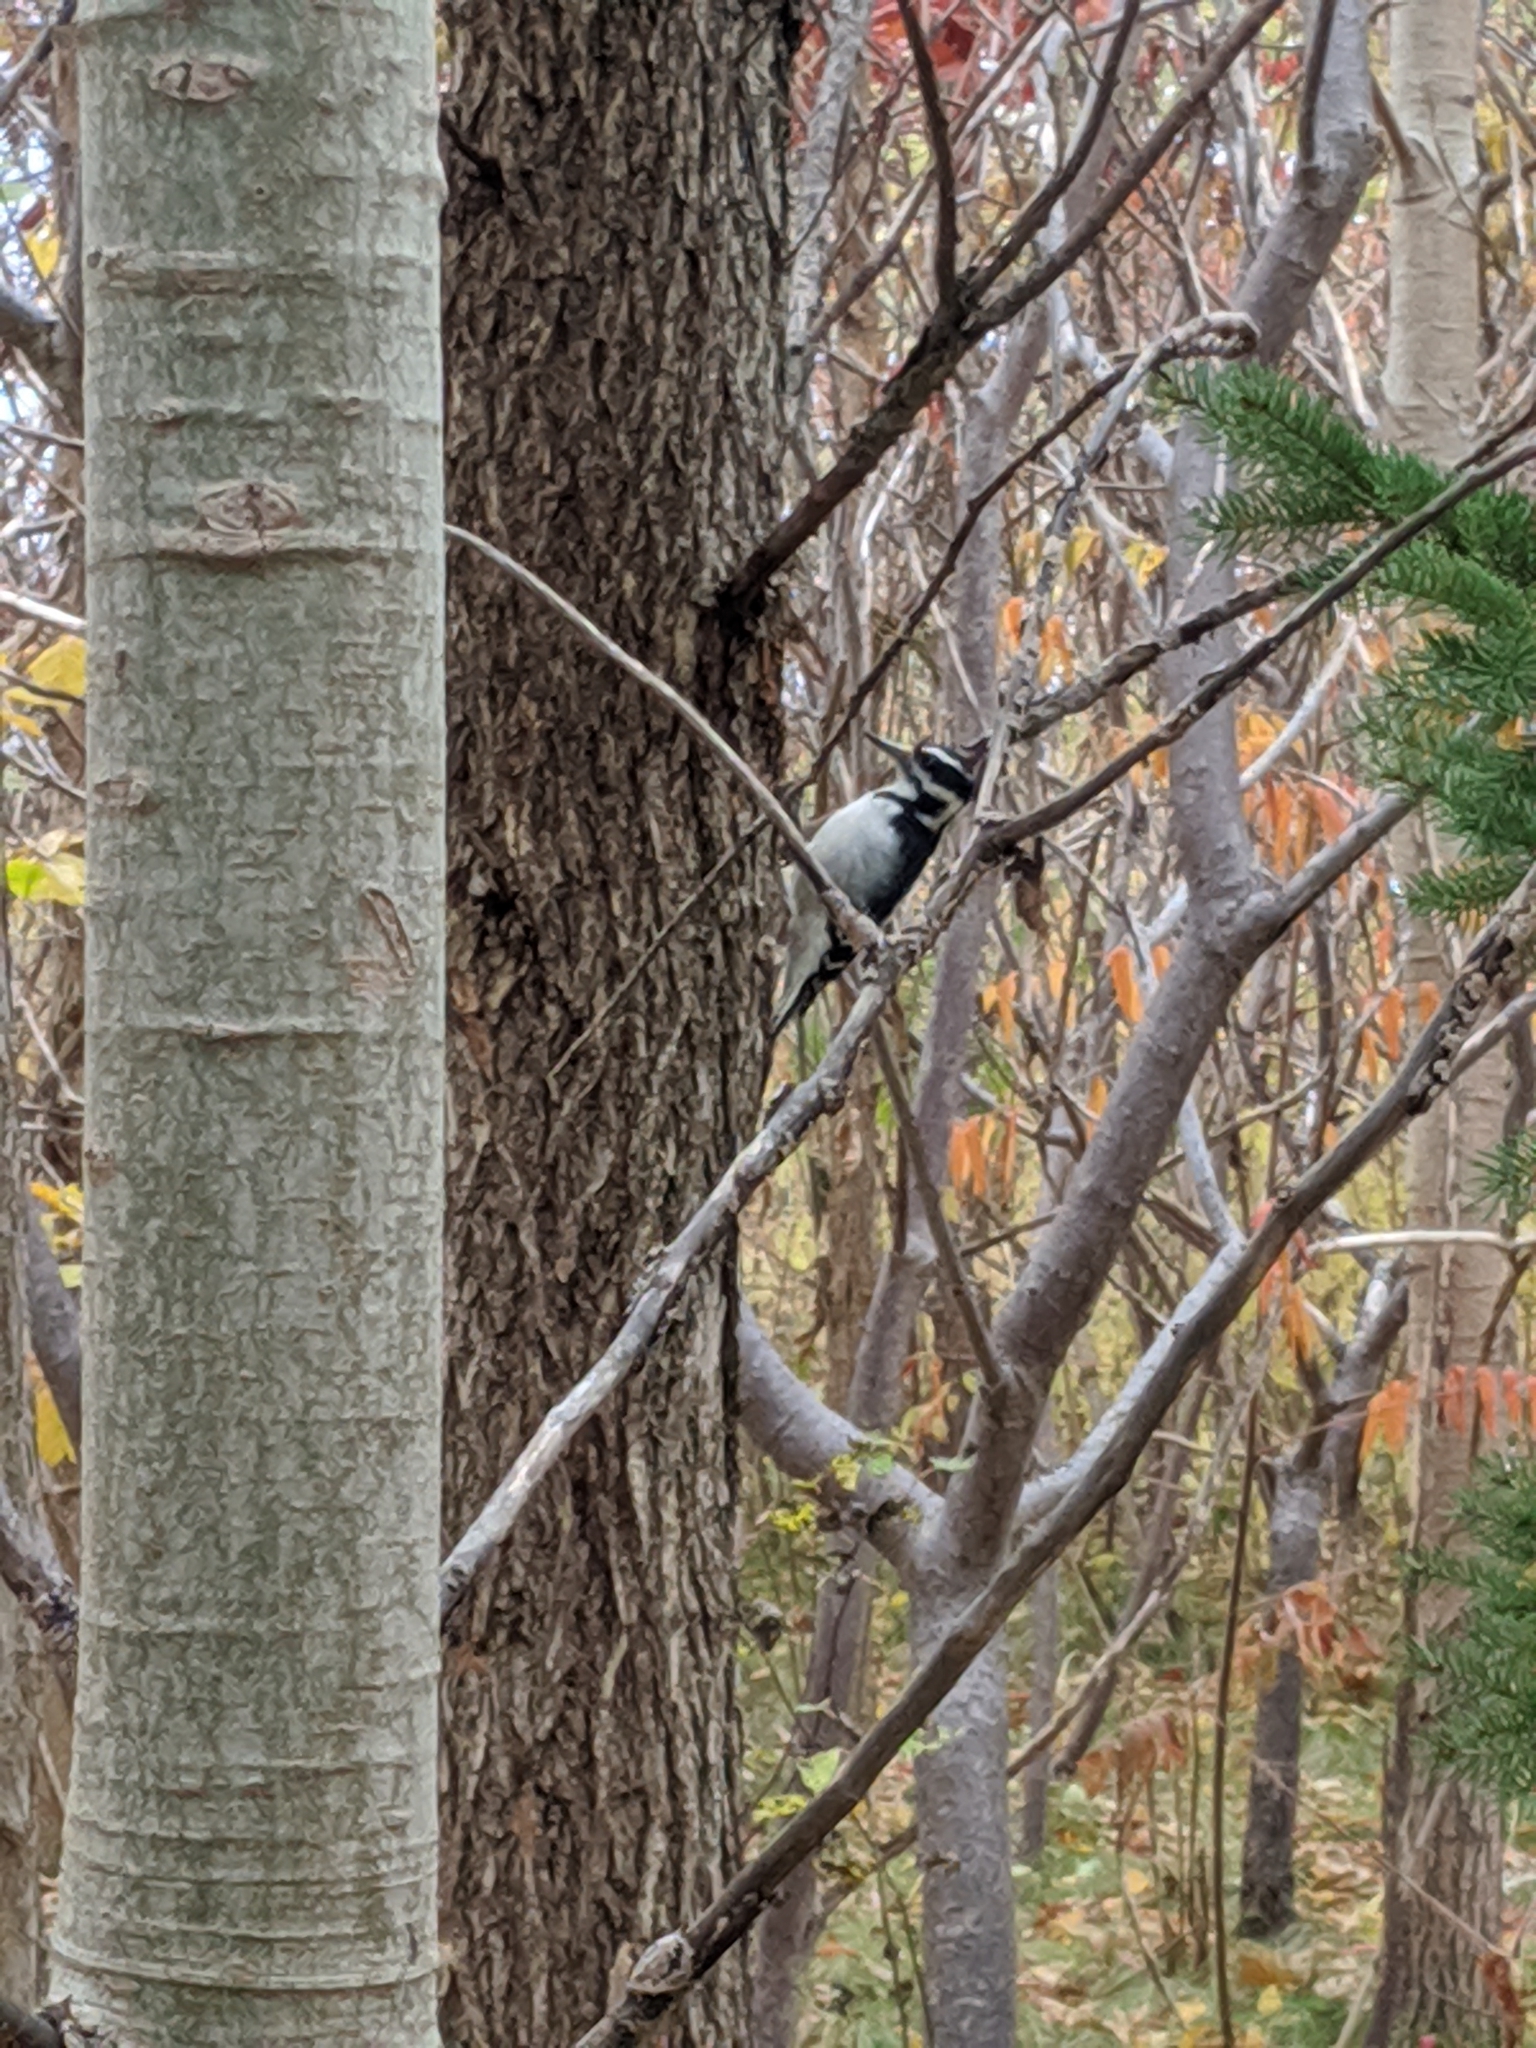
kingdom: Animalia
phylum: Chordata
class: Aves
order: Piciformes
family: Picidae
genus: Leuconotopicus
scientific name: Leuconotopicus villosus
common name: Hairy woodpecker
